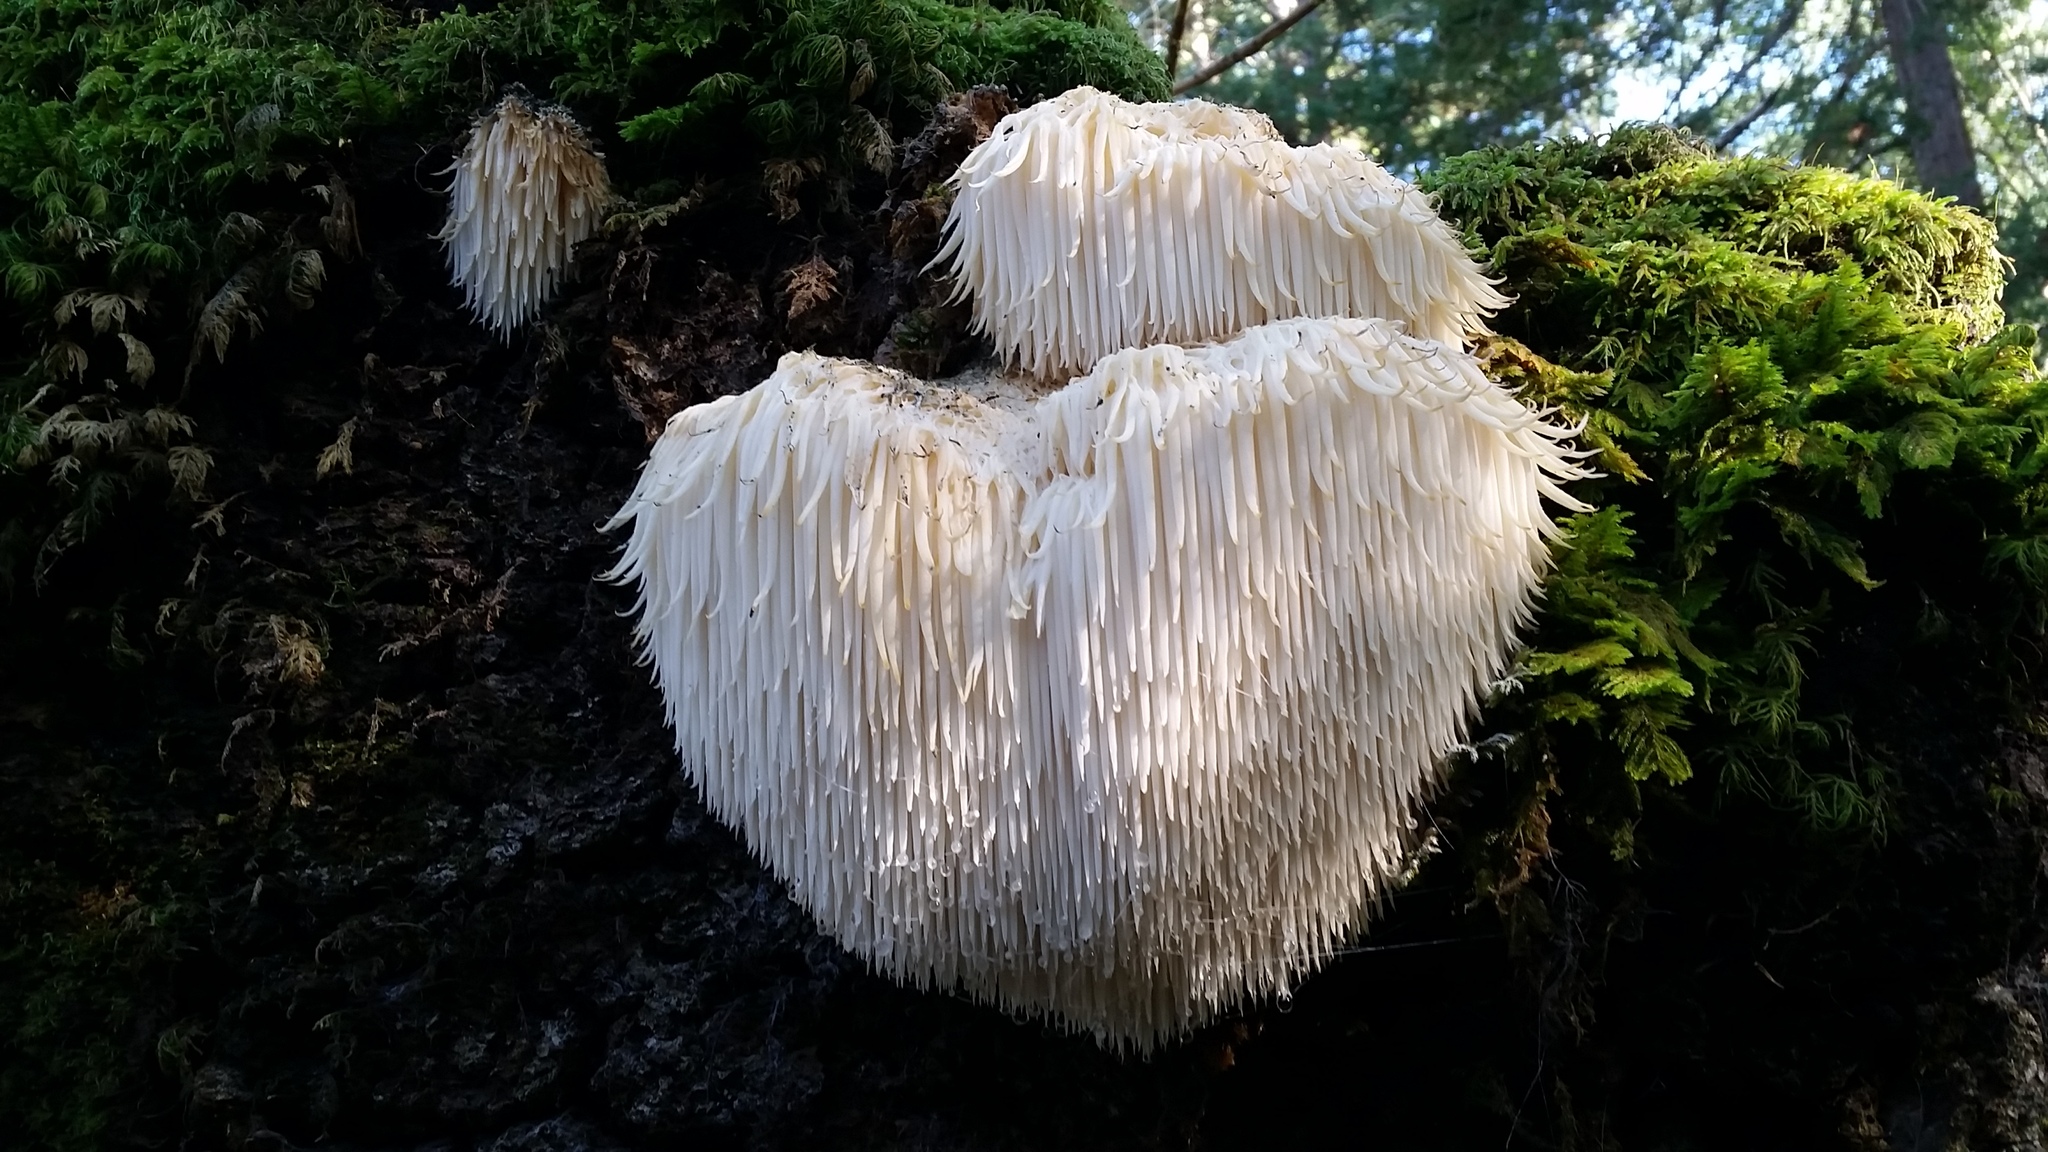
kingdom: Fungi
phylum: Basidiomycota
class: Agaricomycetes
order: Russulales
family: Hericiaceae
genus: Hericium
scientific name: Hericium erinaceus
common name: Bearded tooth
